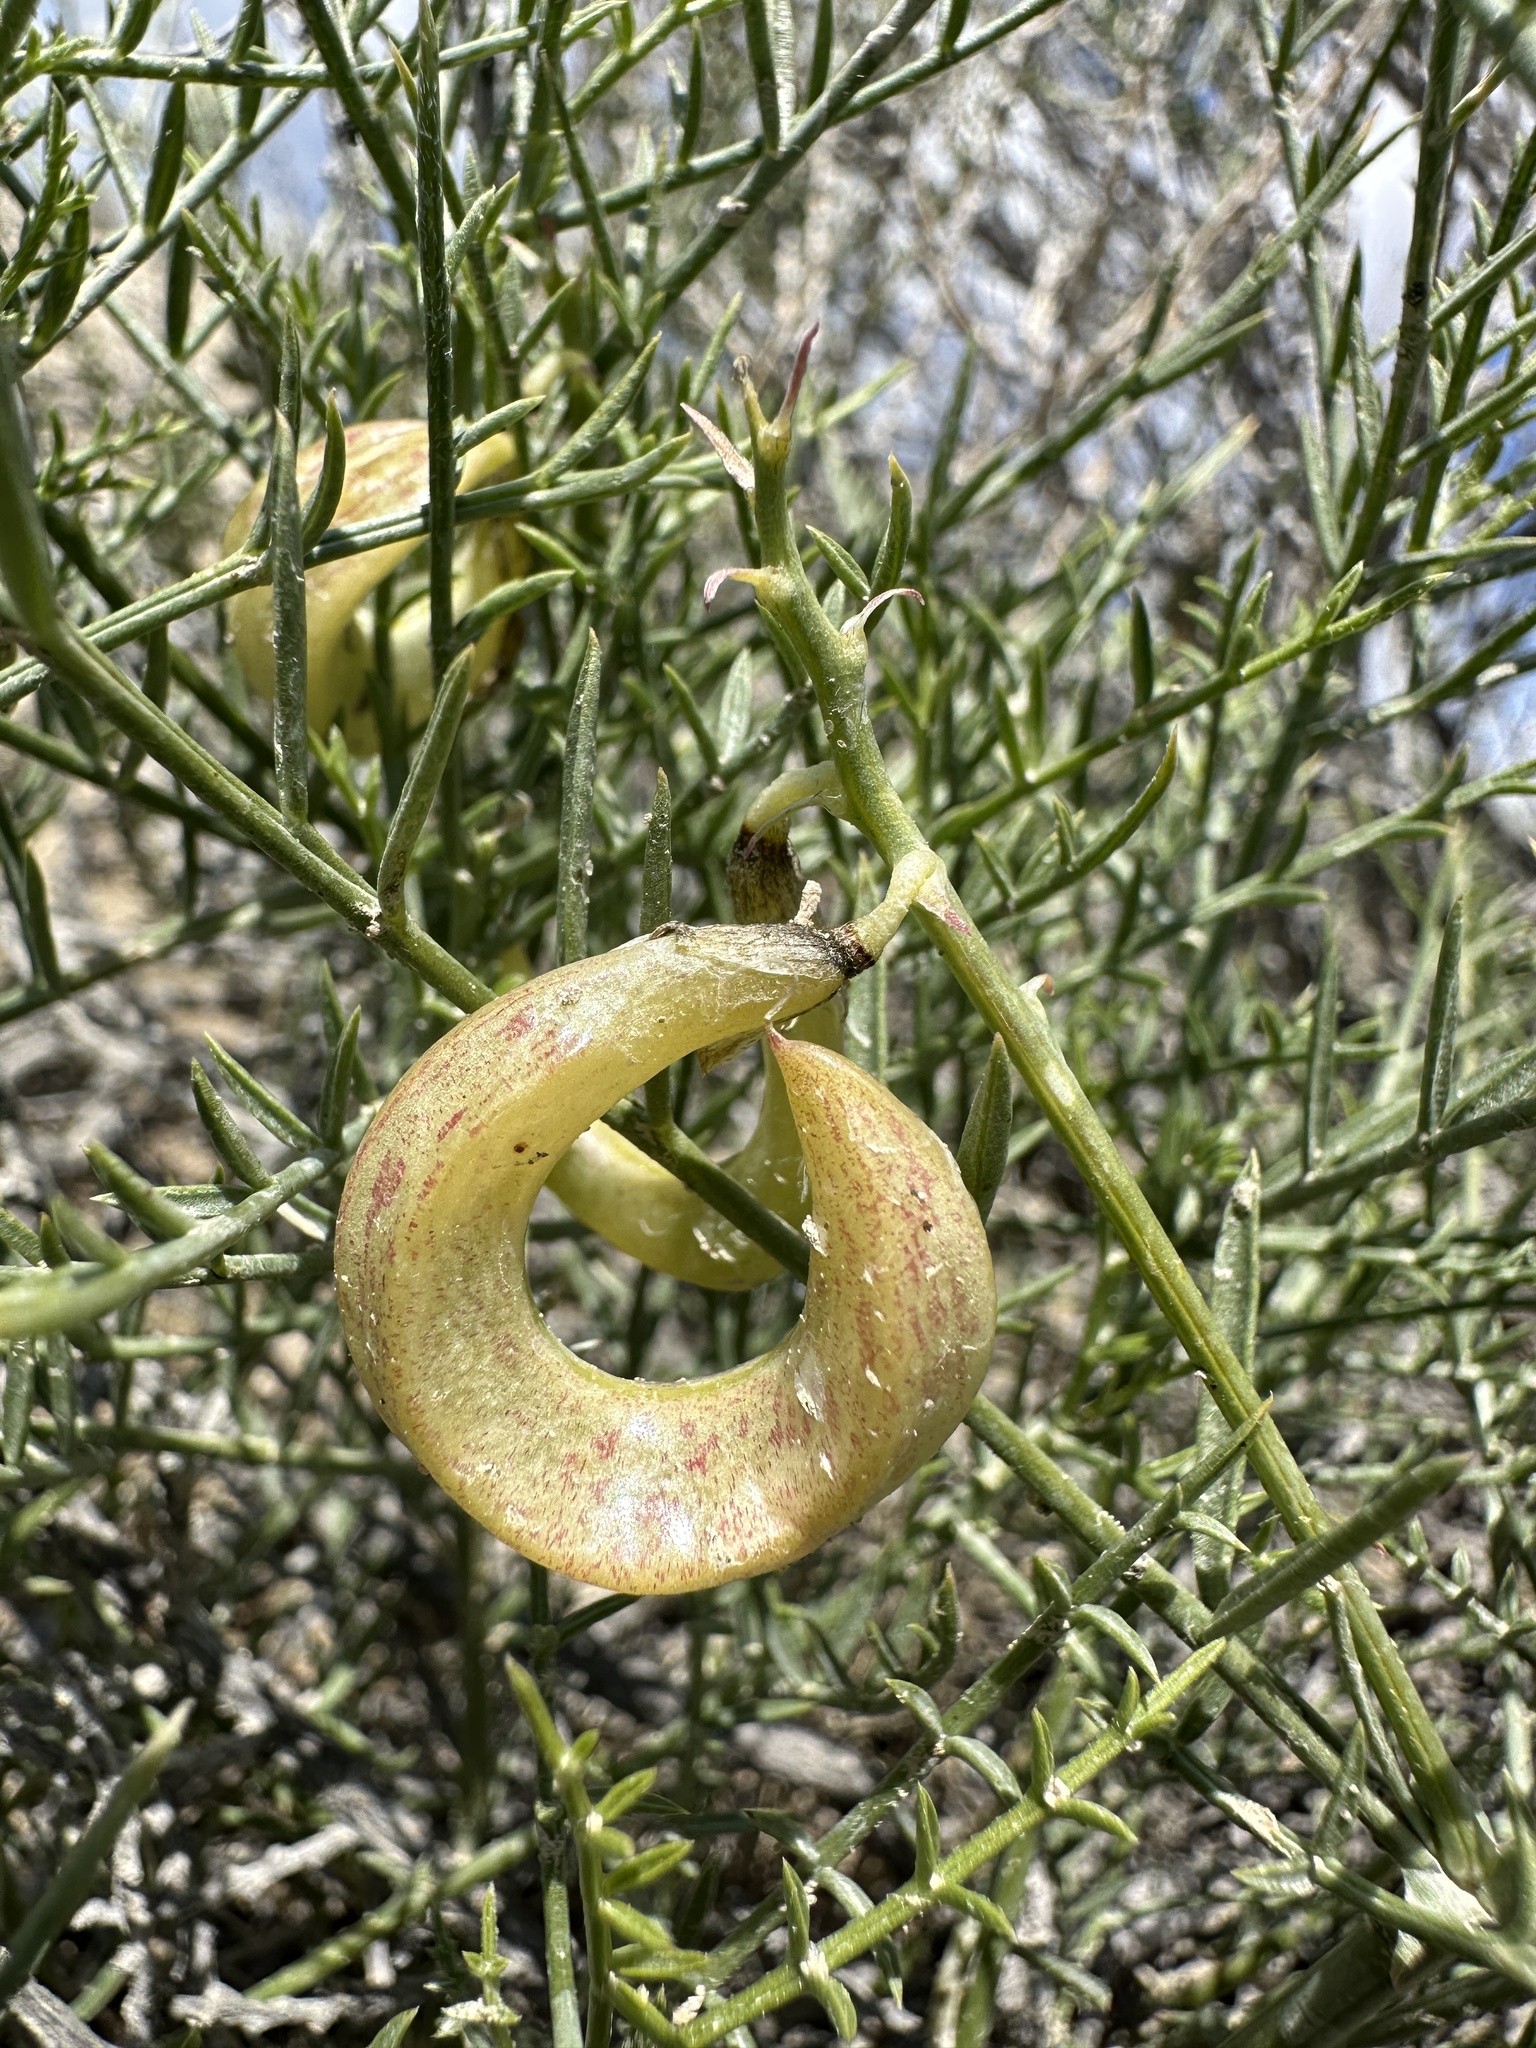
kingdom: Plantae
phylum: Tracheophyta
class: Magnoliopsida
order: Fabales
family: Fabaceae
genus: Astragalus
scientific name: Astragalus tetrapterus
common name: Four-wing milk-vetch
